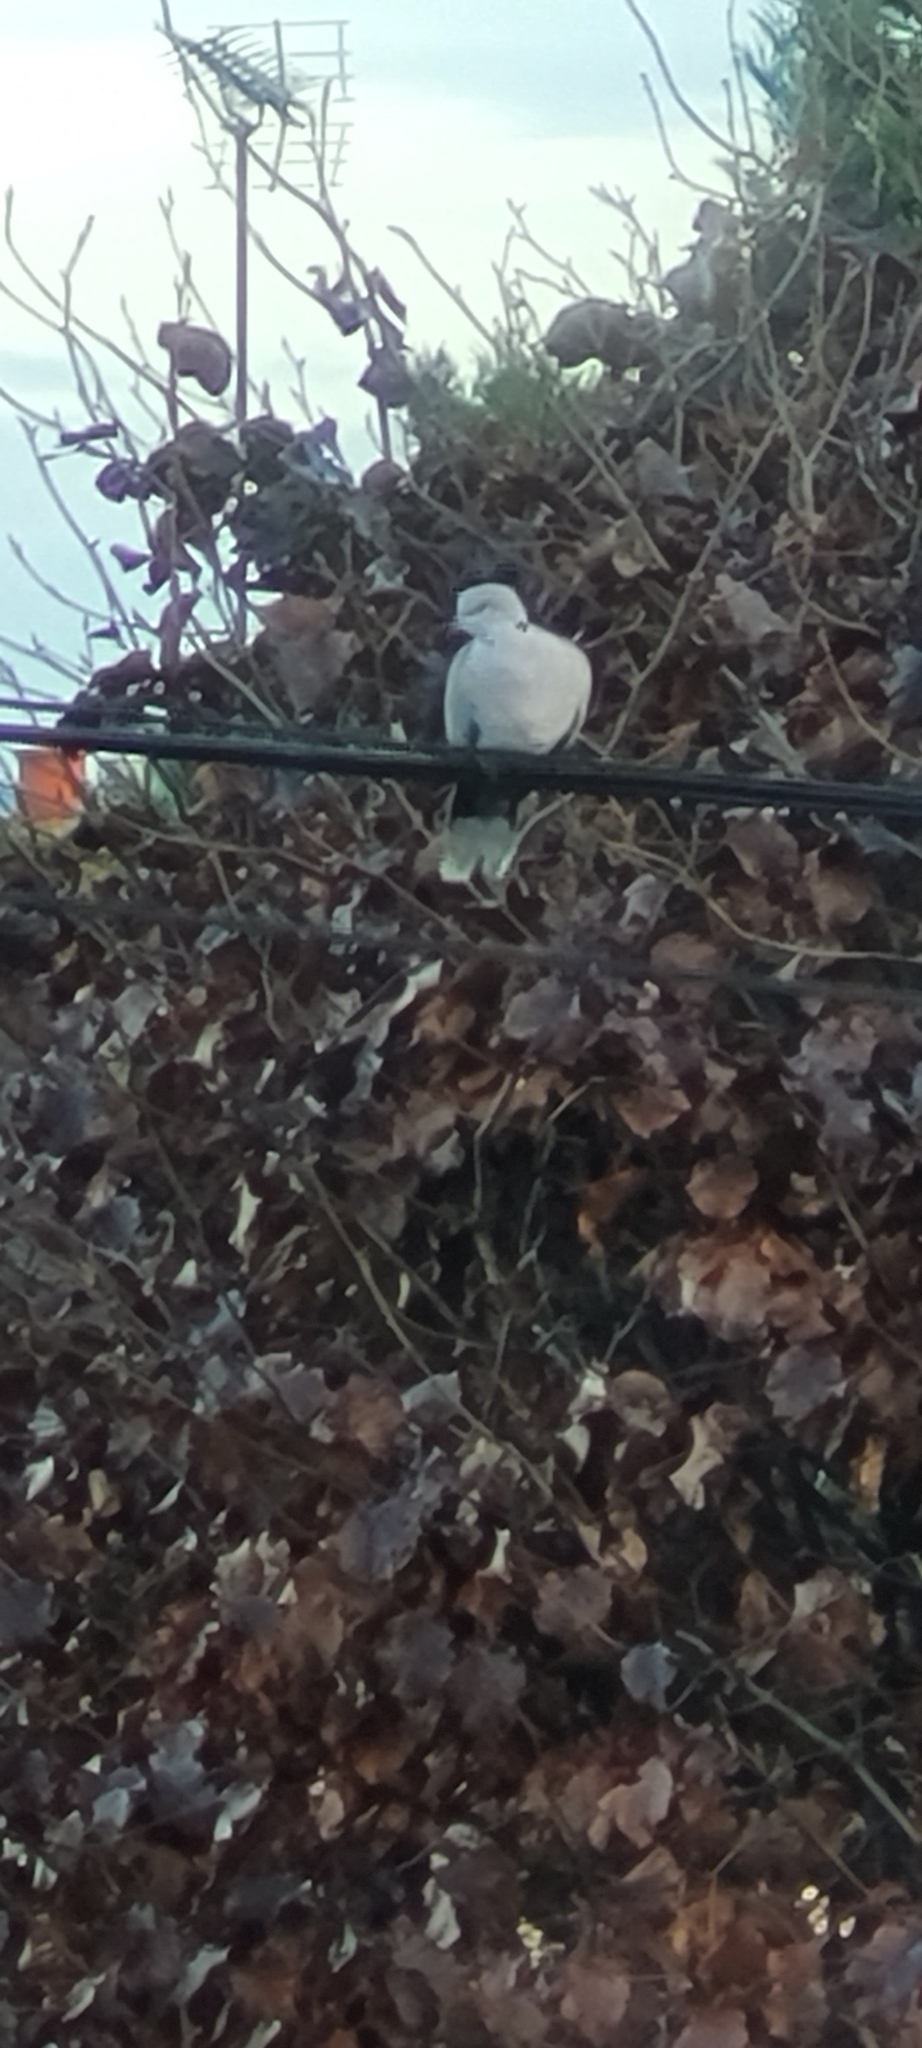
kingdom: Animalia
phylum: Chordata
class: Aves
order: Columbiformes
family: Columbidae
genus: Streptopelia
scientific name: Streptopelia decaocto
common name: Eurasian collared dove
